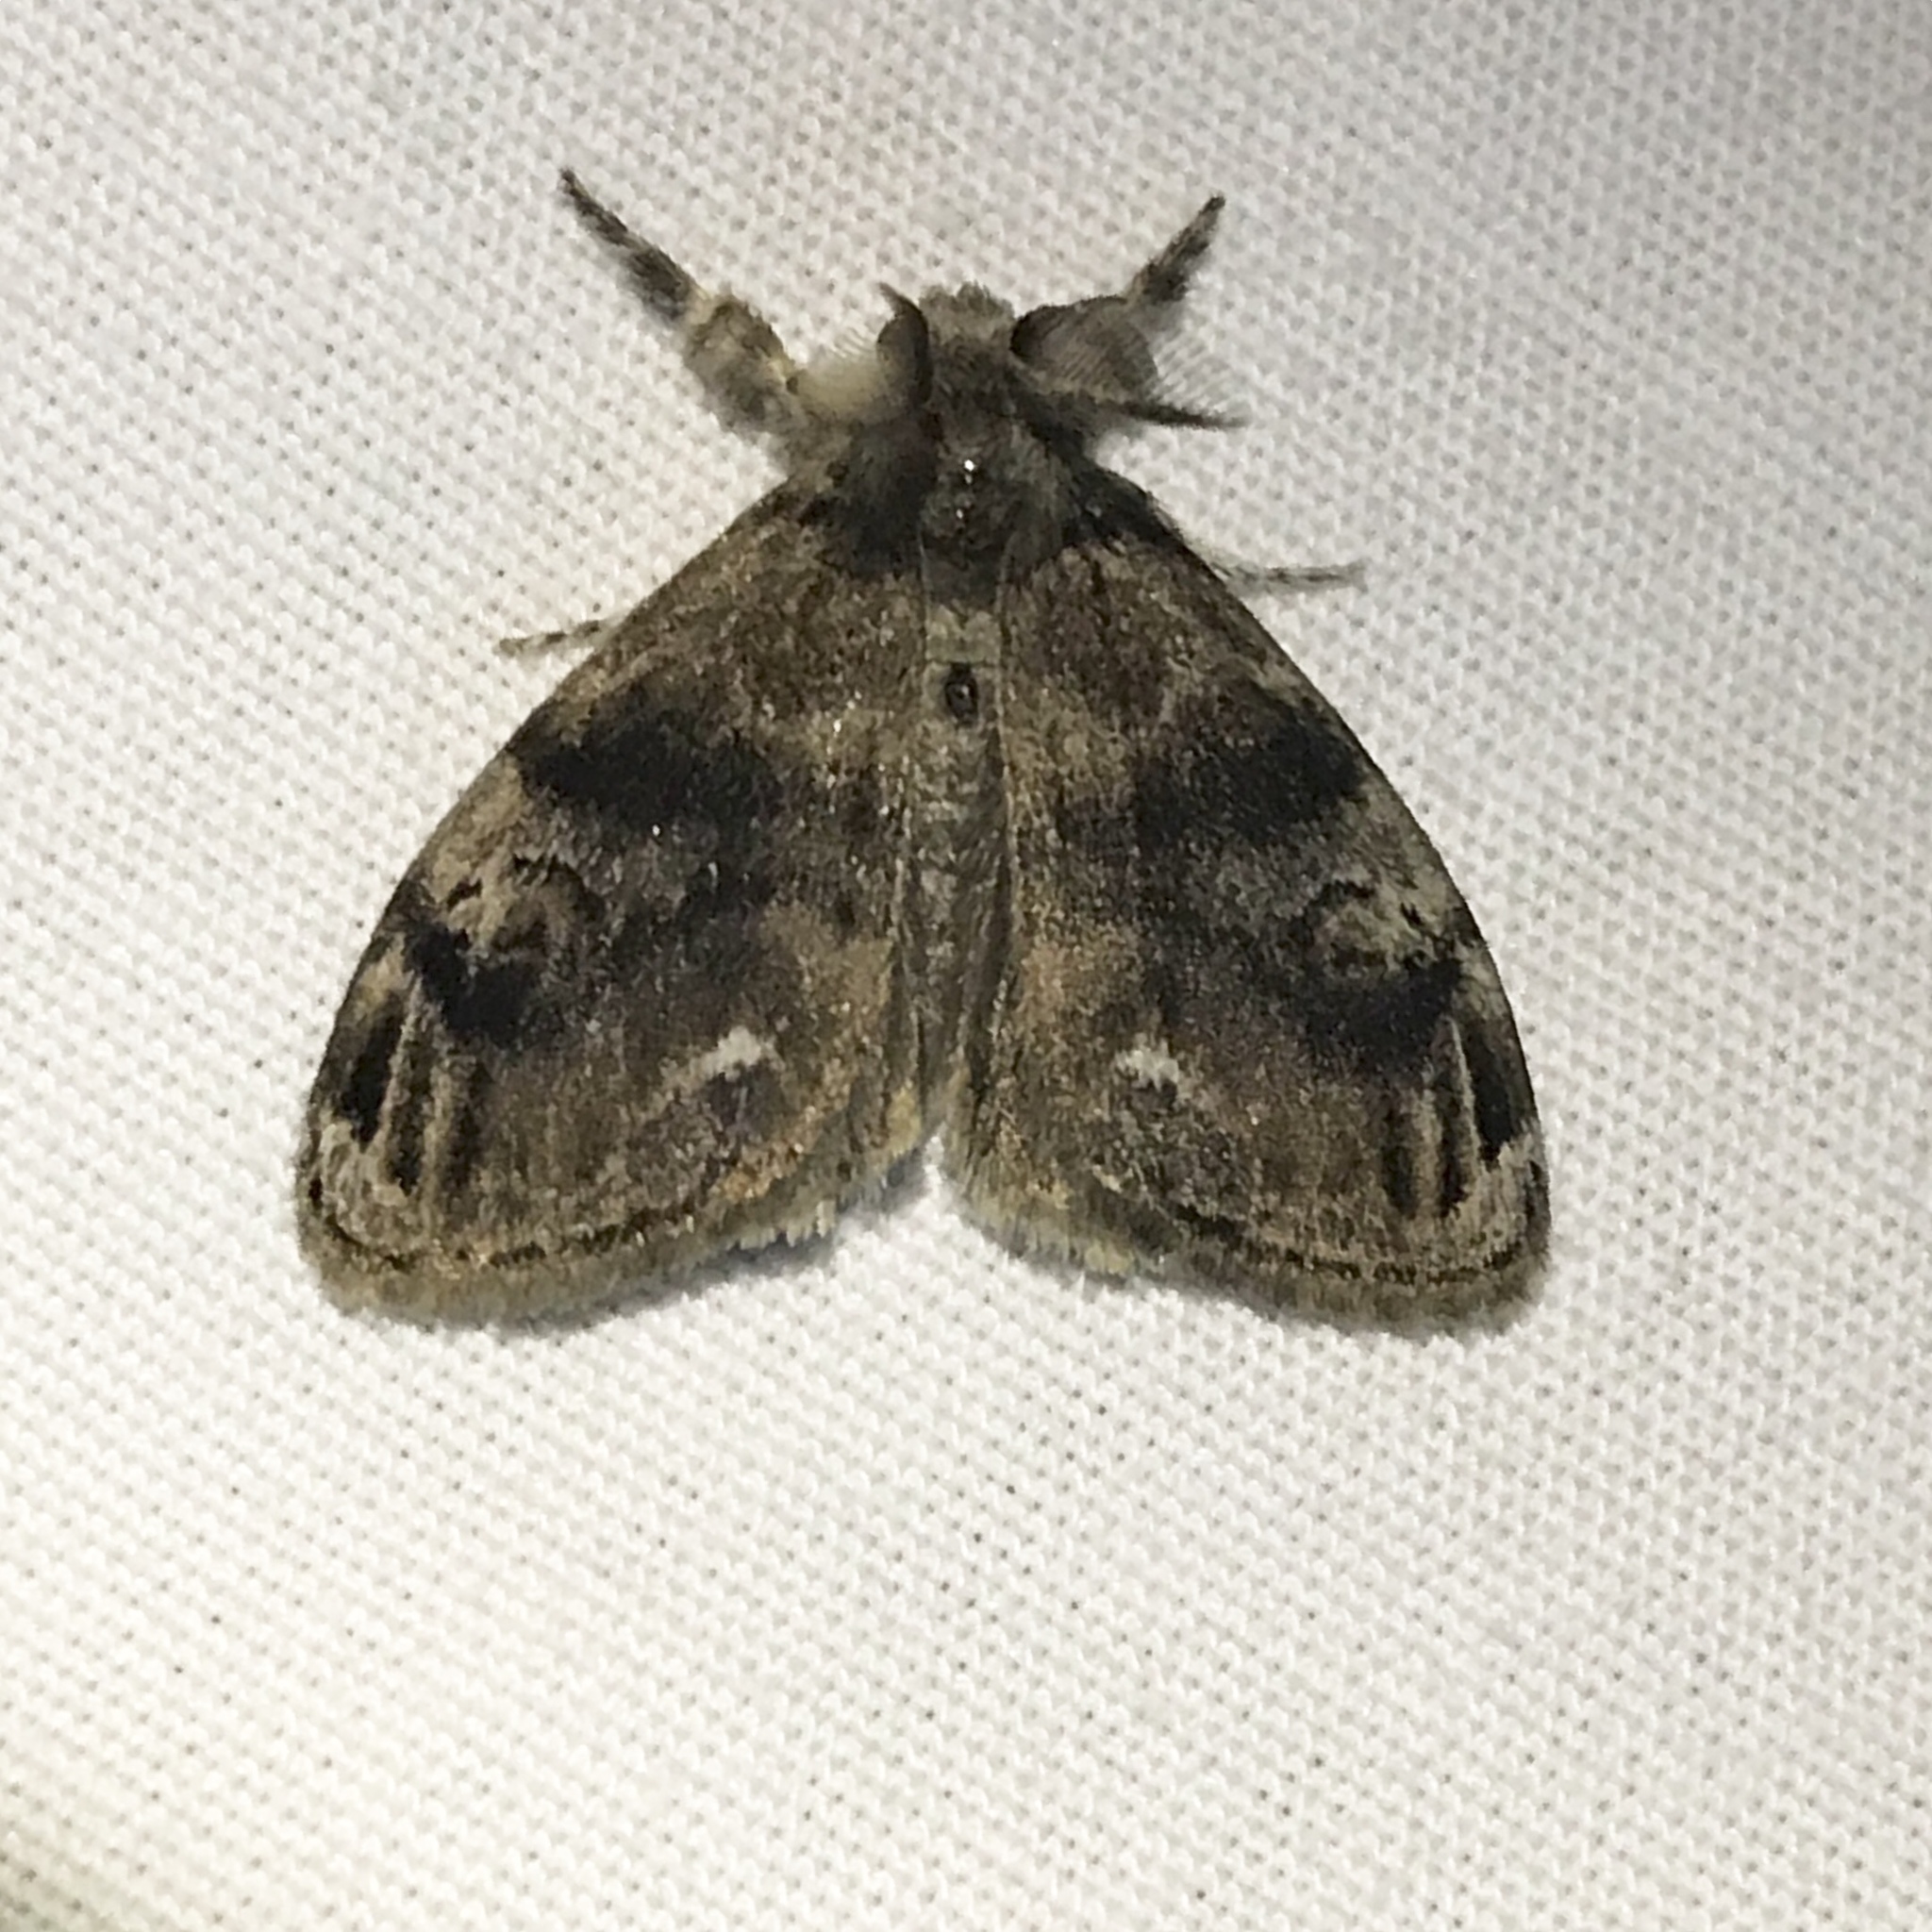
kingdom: Animalia
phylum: Arthropoda
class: Insecta
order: Lepidoptera
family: Erebidae
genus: Orgyia
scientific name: Orgyia definita
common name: Definite tussock moth
